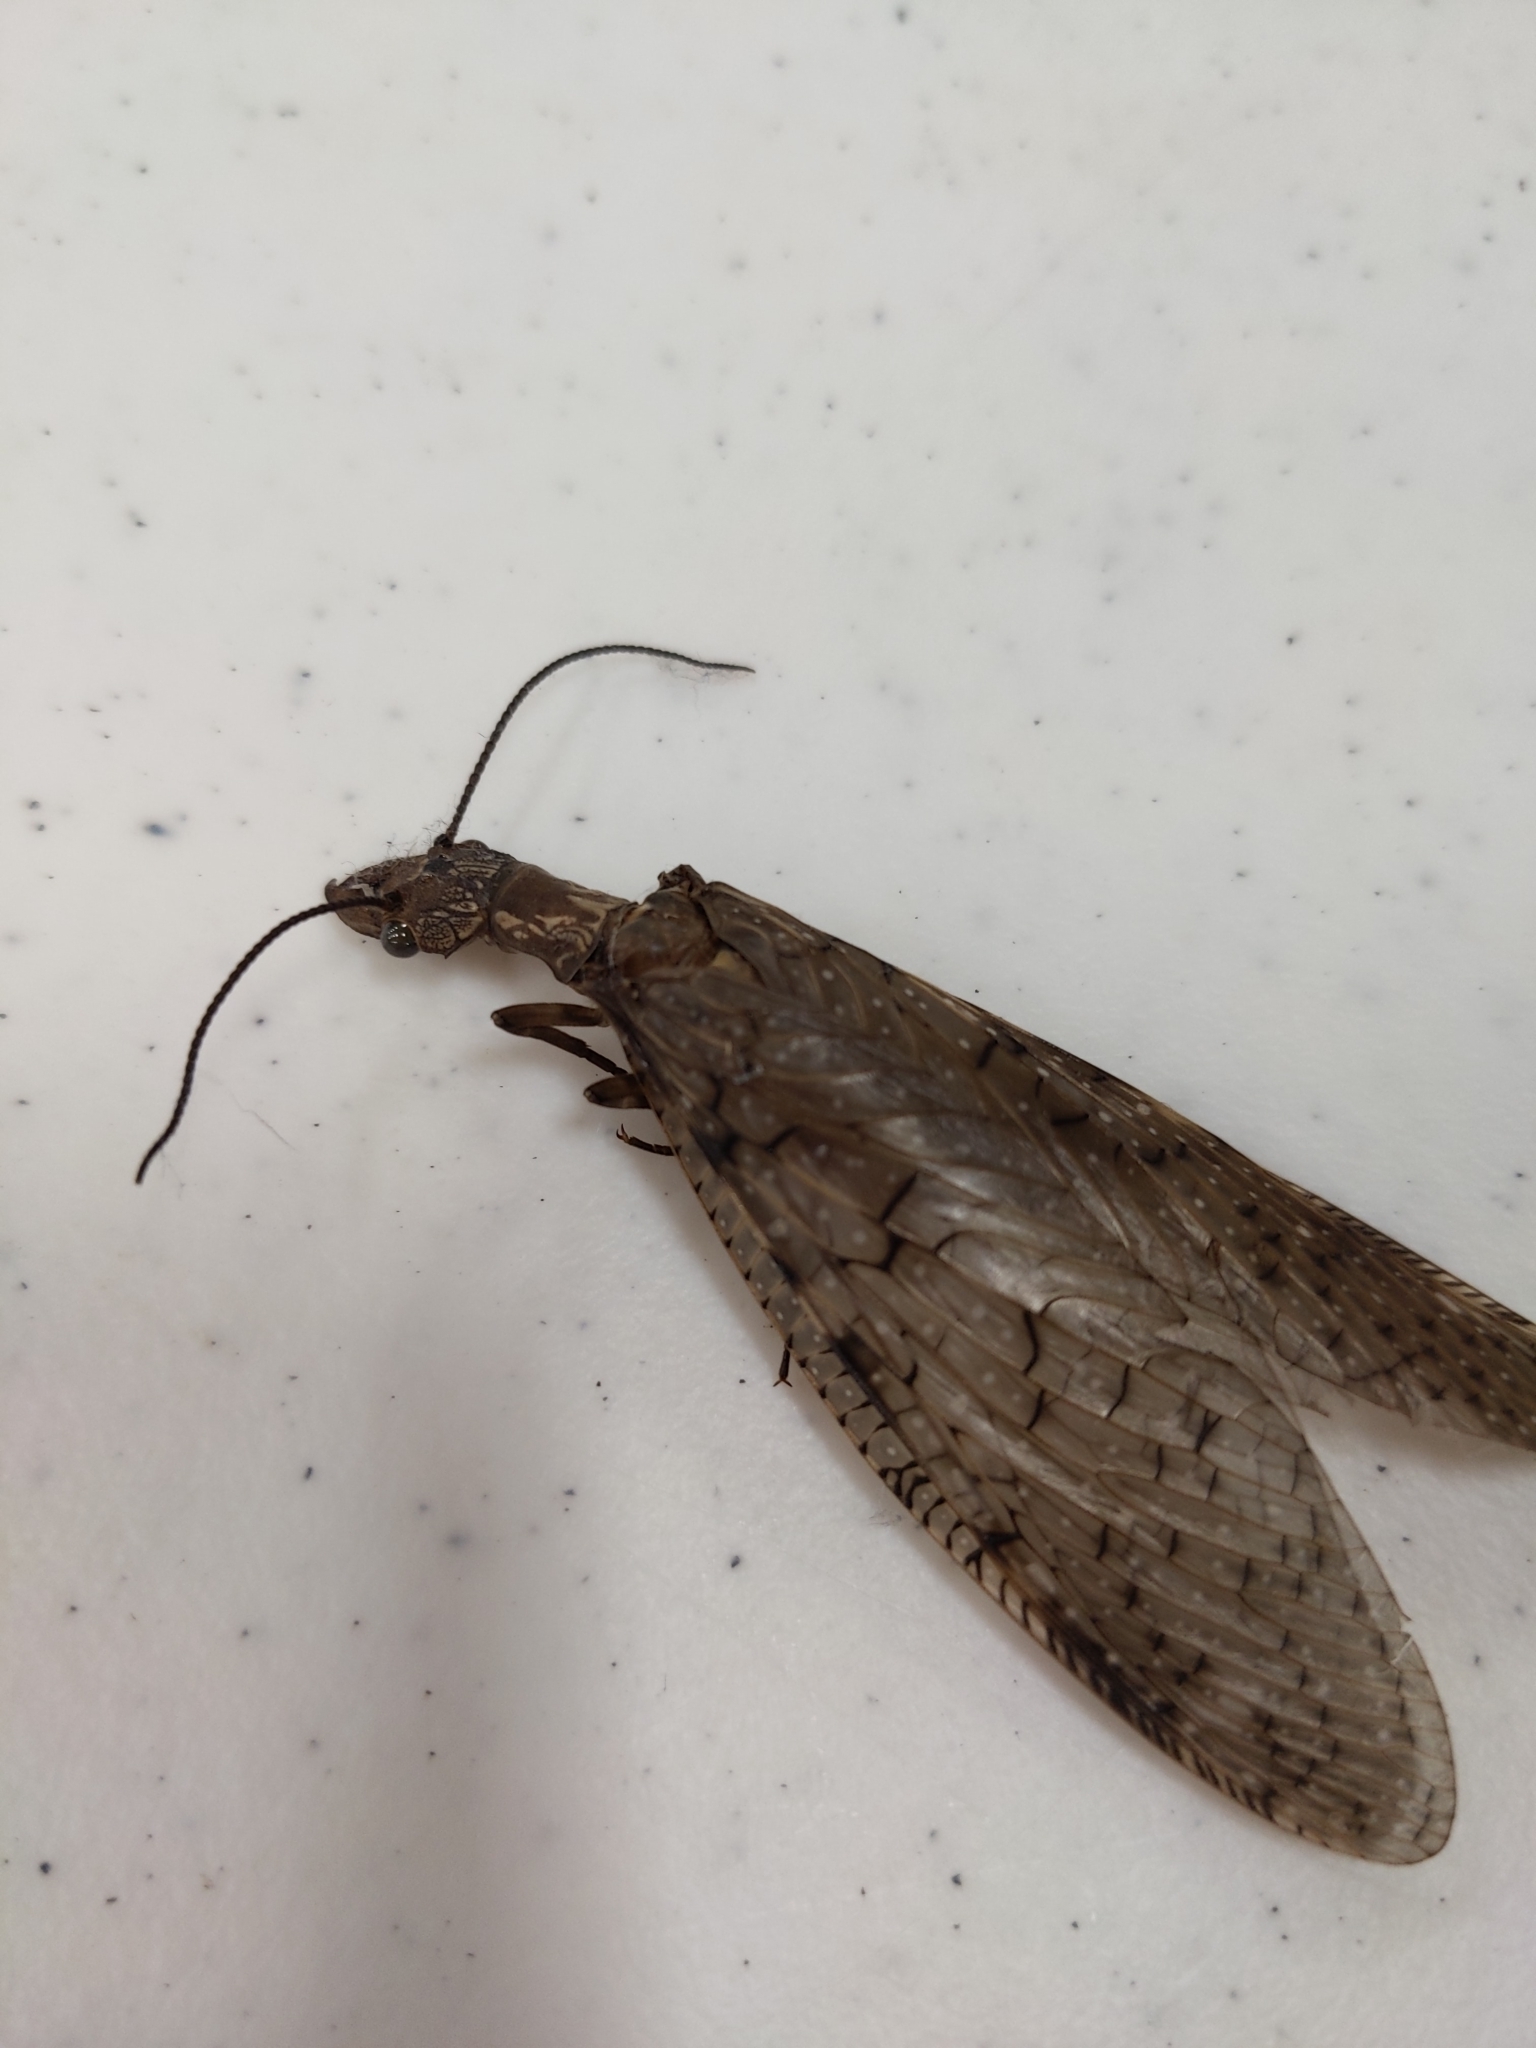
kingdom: Animalia
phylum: Arthropoda
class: Insecta
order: Megaloptera
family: Corydalidae
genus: Corydalus
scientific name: Corydalus cornutus
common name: Dobsonfly
